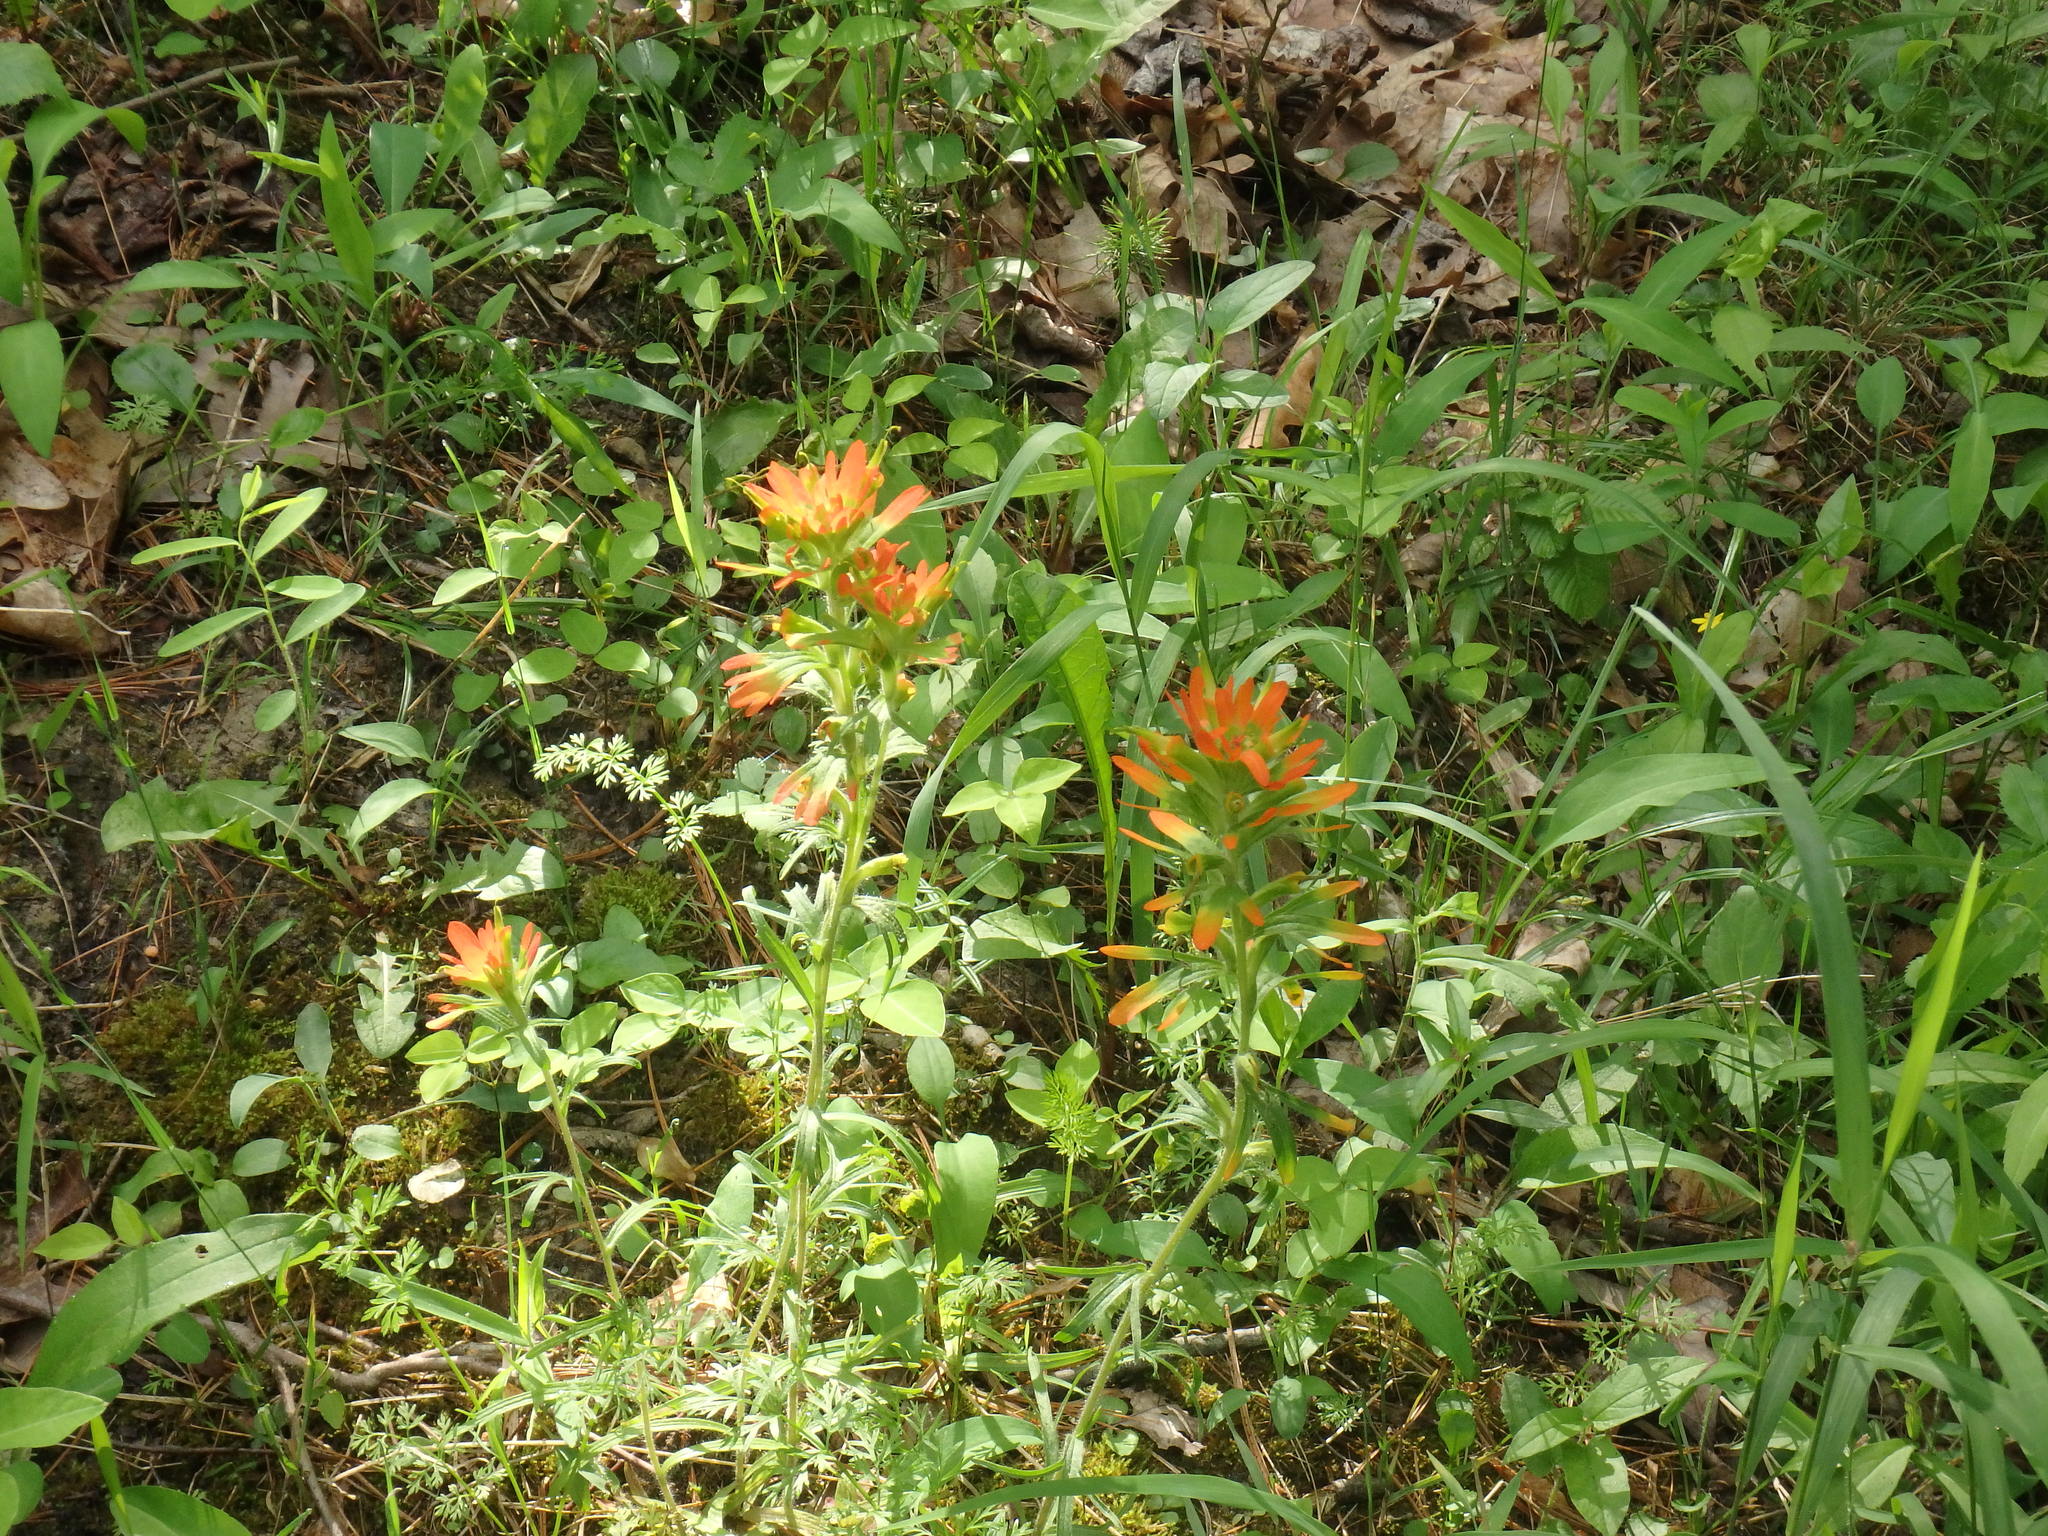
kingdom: Plantae
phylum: Tracheophyta
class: Magnoliopsida
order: Lamiales
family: Orobanchaceae
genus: Castilleja
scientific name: Castilleja coccinea
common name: Scarlet paintbrush
